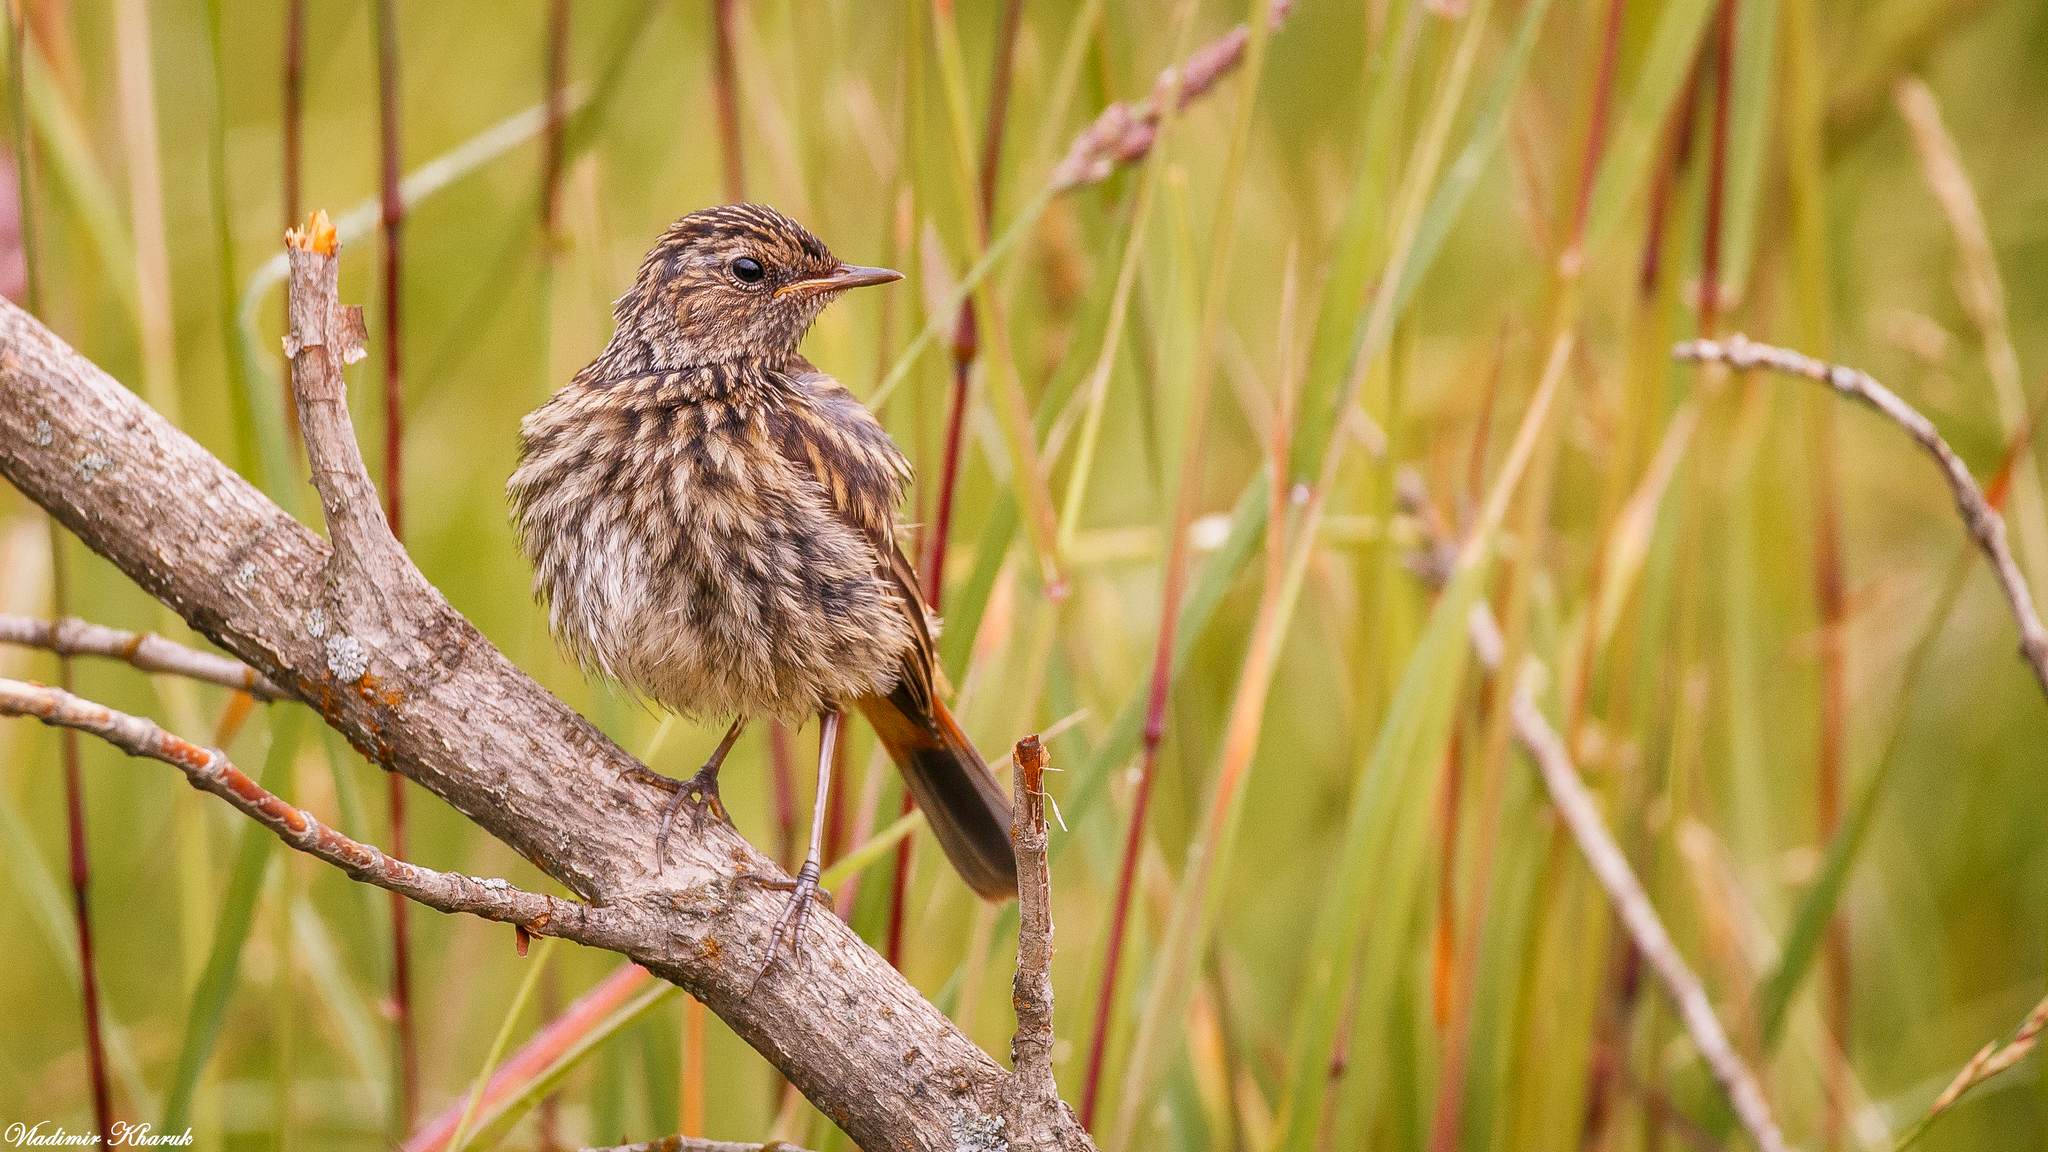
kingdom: Animalia
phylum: Chordata
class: Aves
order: Passeriformes
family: Muscicapidae
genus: Luscinia
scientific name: Luscinia svecica
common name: Bluethroat
